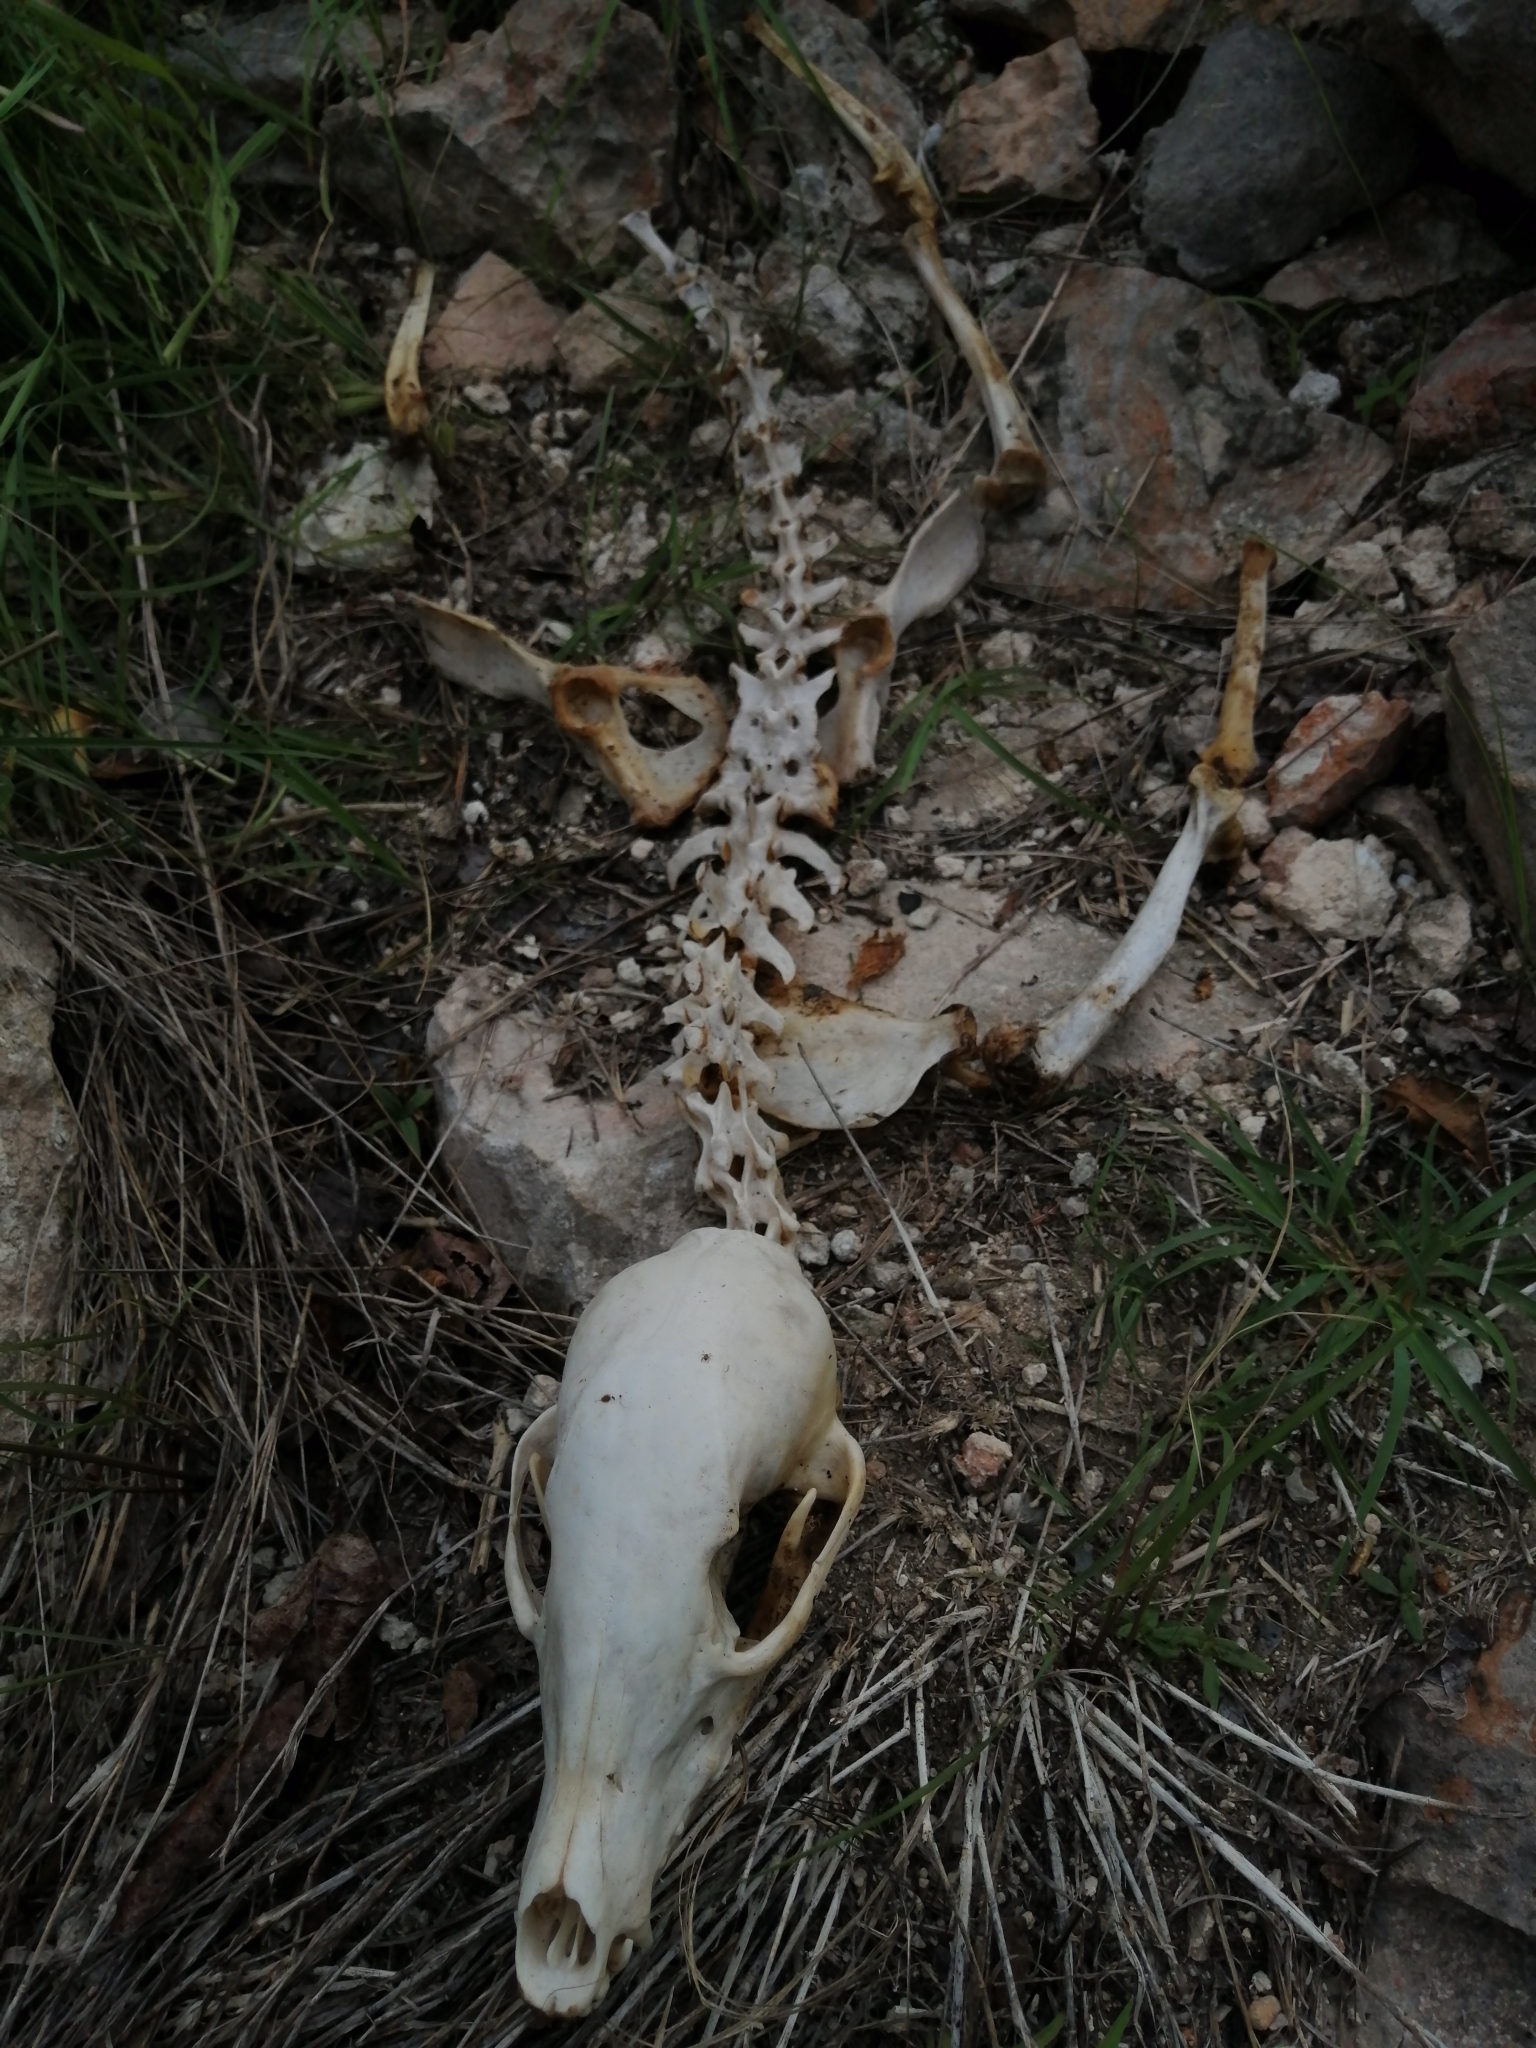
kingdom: Animalia
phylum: Chordata
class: Mammalia
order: Carnivora
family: Procyonidae
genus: Nasua
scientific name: Nasua narica
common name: White-nosed coati
